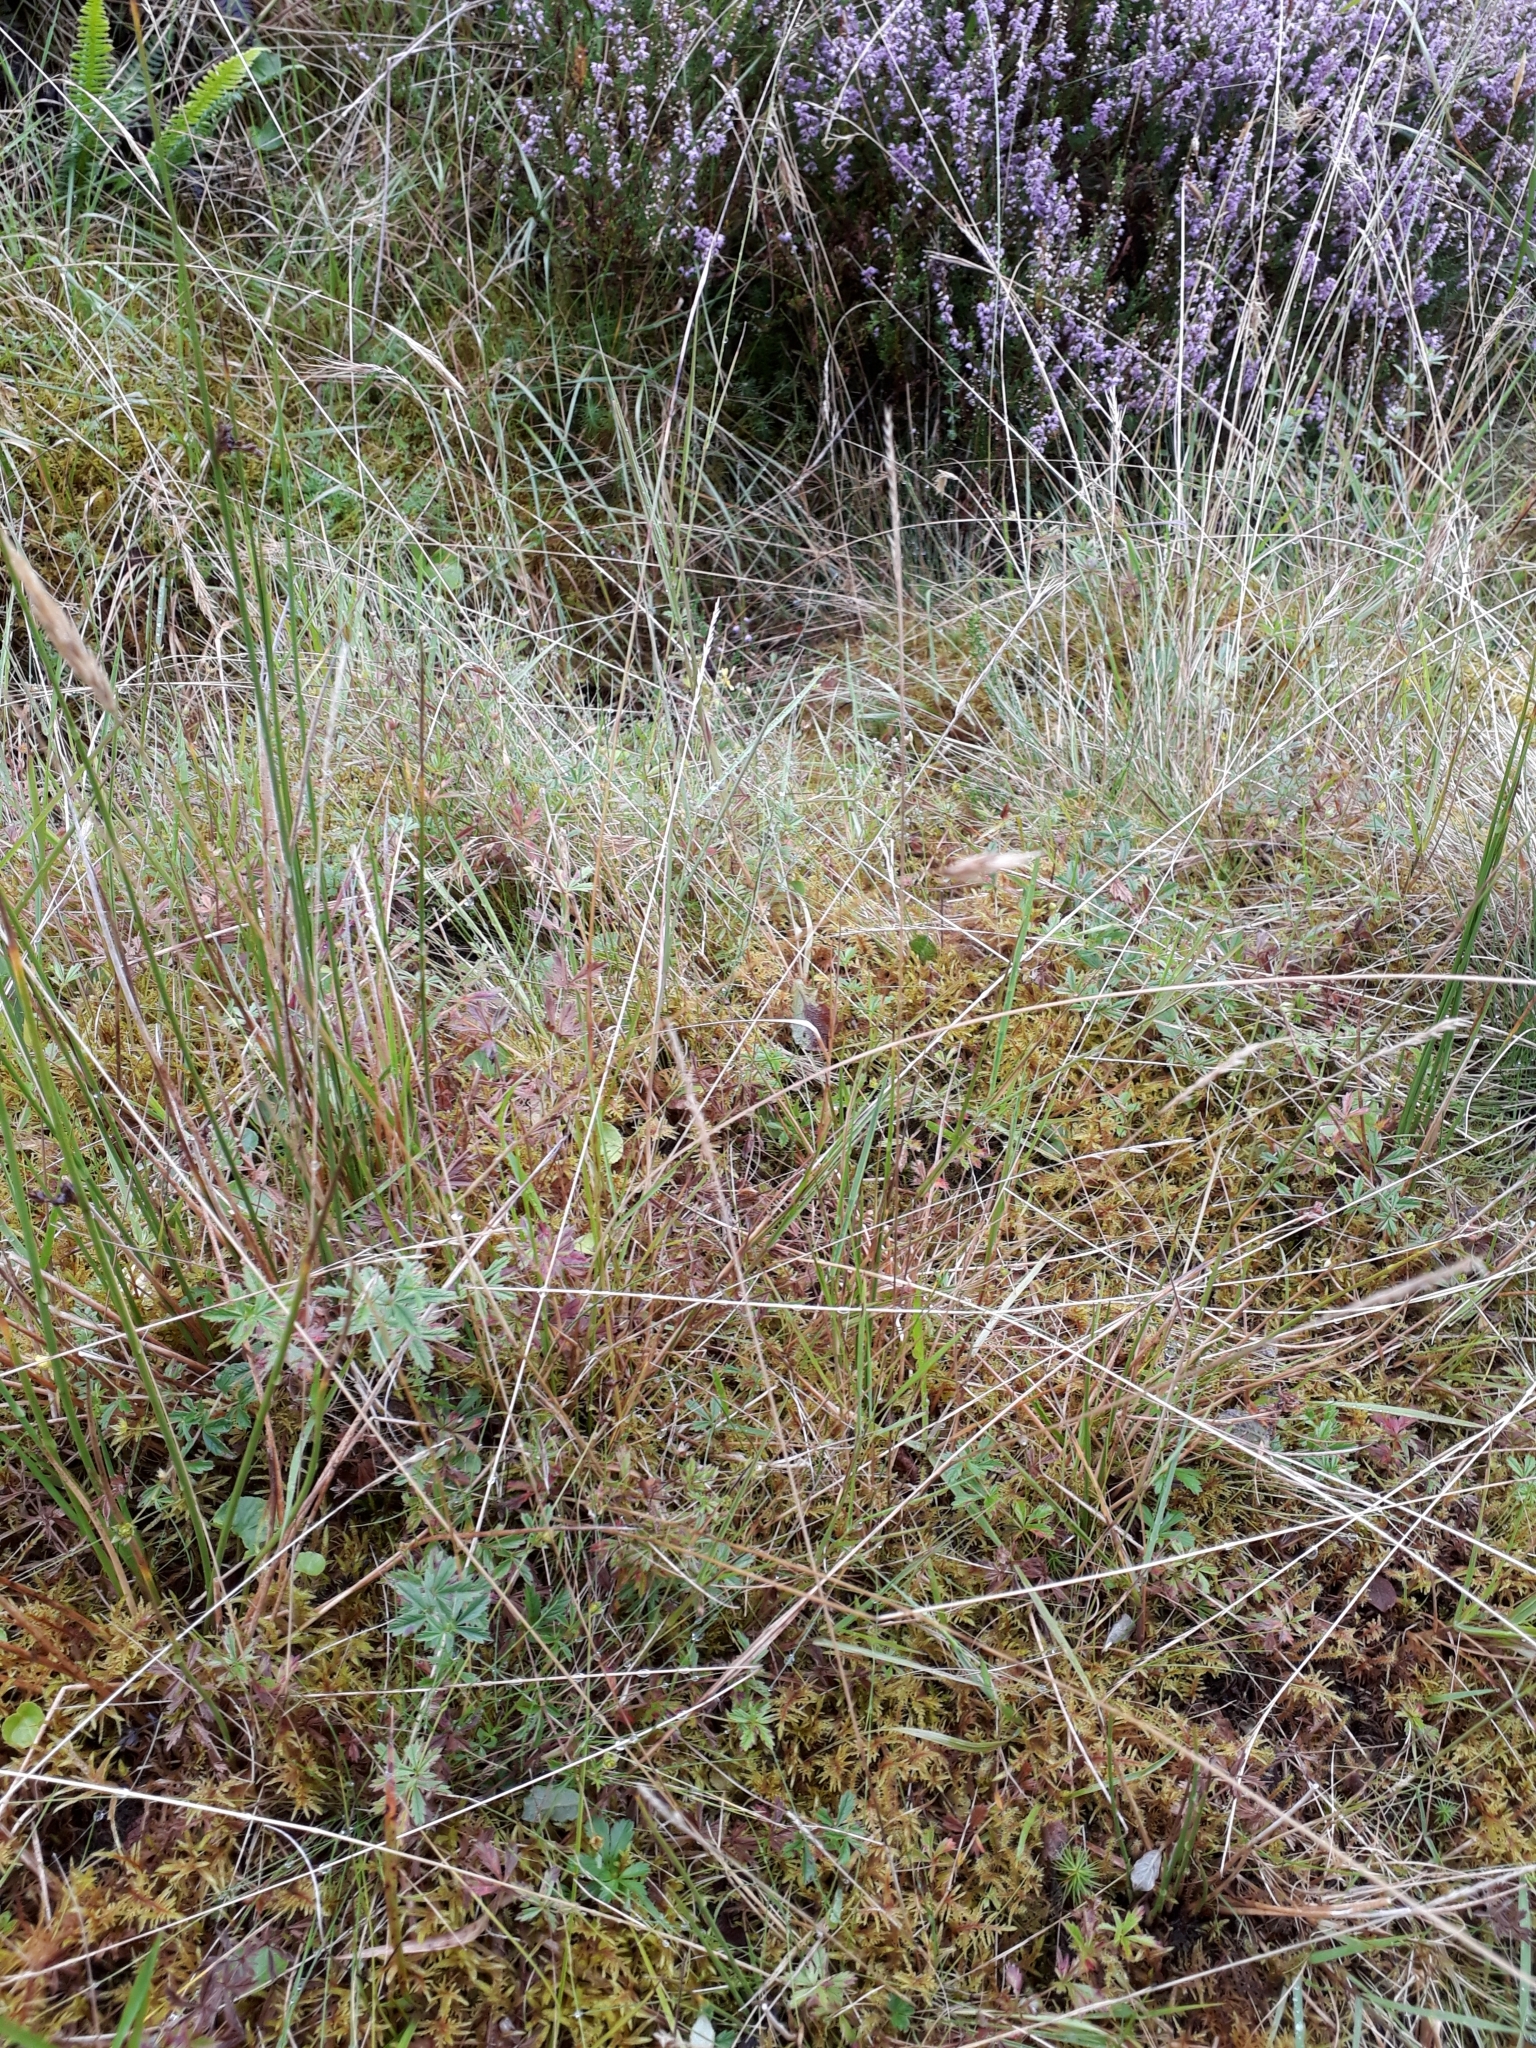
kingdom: Plantae
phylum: Tracheophyta
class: Liliopsida
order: Poales
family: Poaceae
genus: Festuca
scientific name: Festuca vivipara
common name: Viviparous sheep's-fescue
